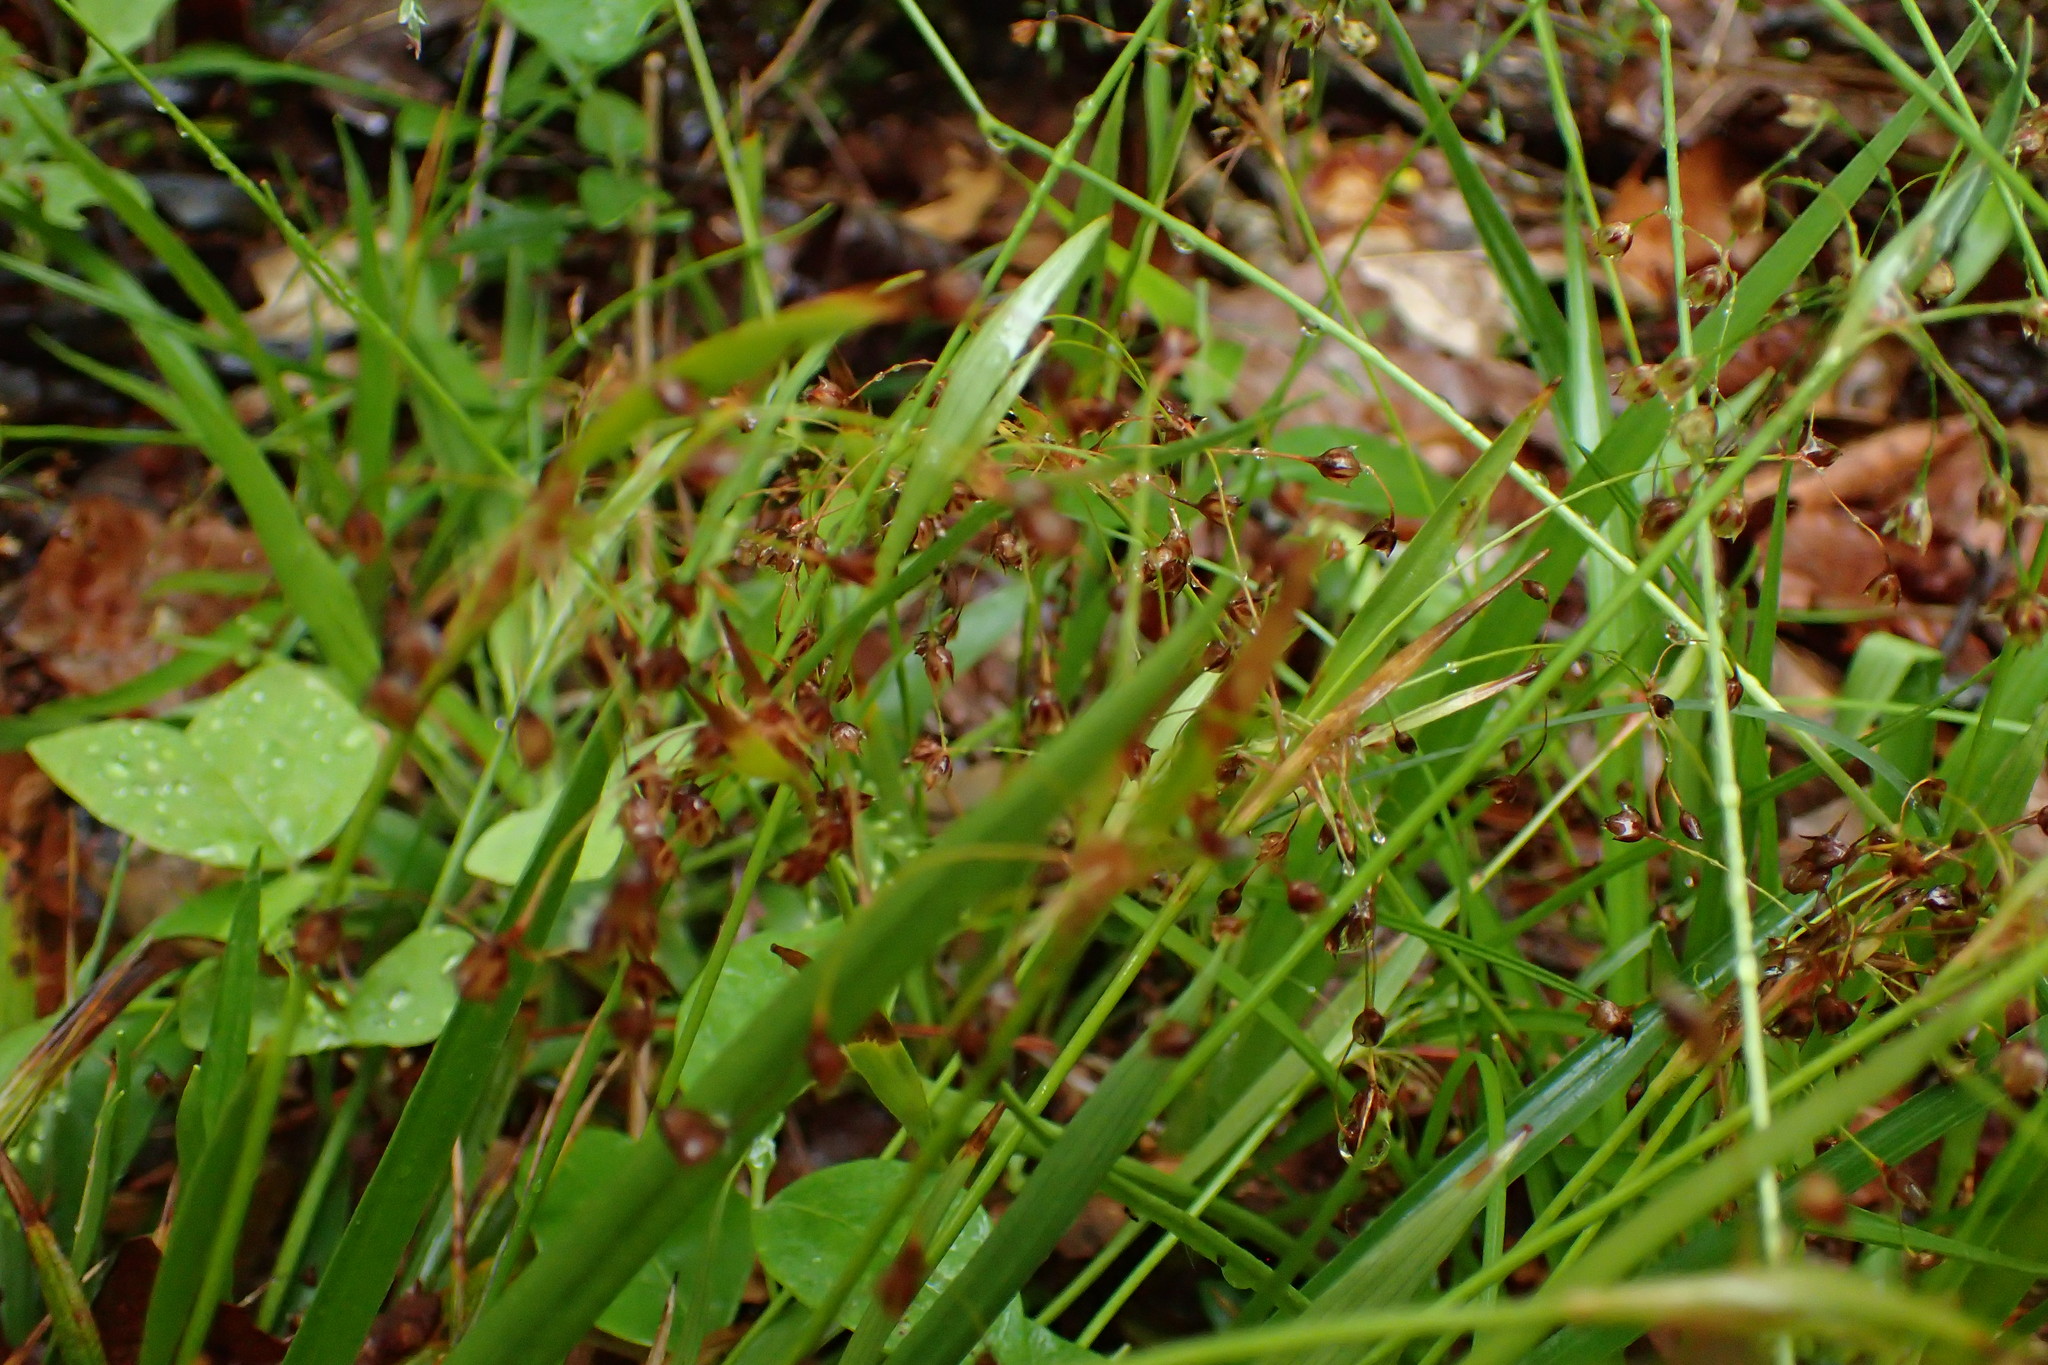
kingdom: Plantae
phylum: Tracheophyta
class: Liliopsida
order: Poales
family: Juncaceae
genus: Luzula
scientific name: Luzula acuminata
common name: Hairy woodrush
